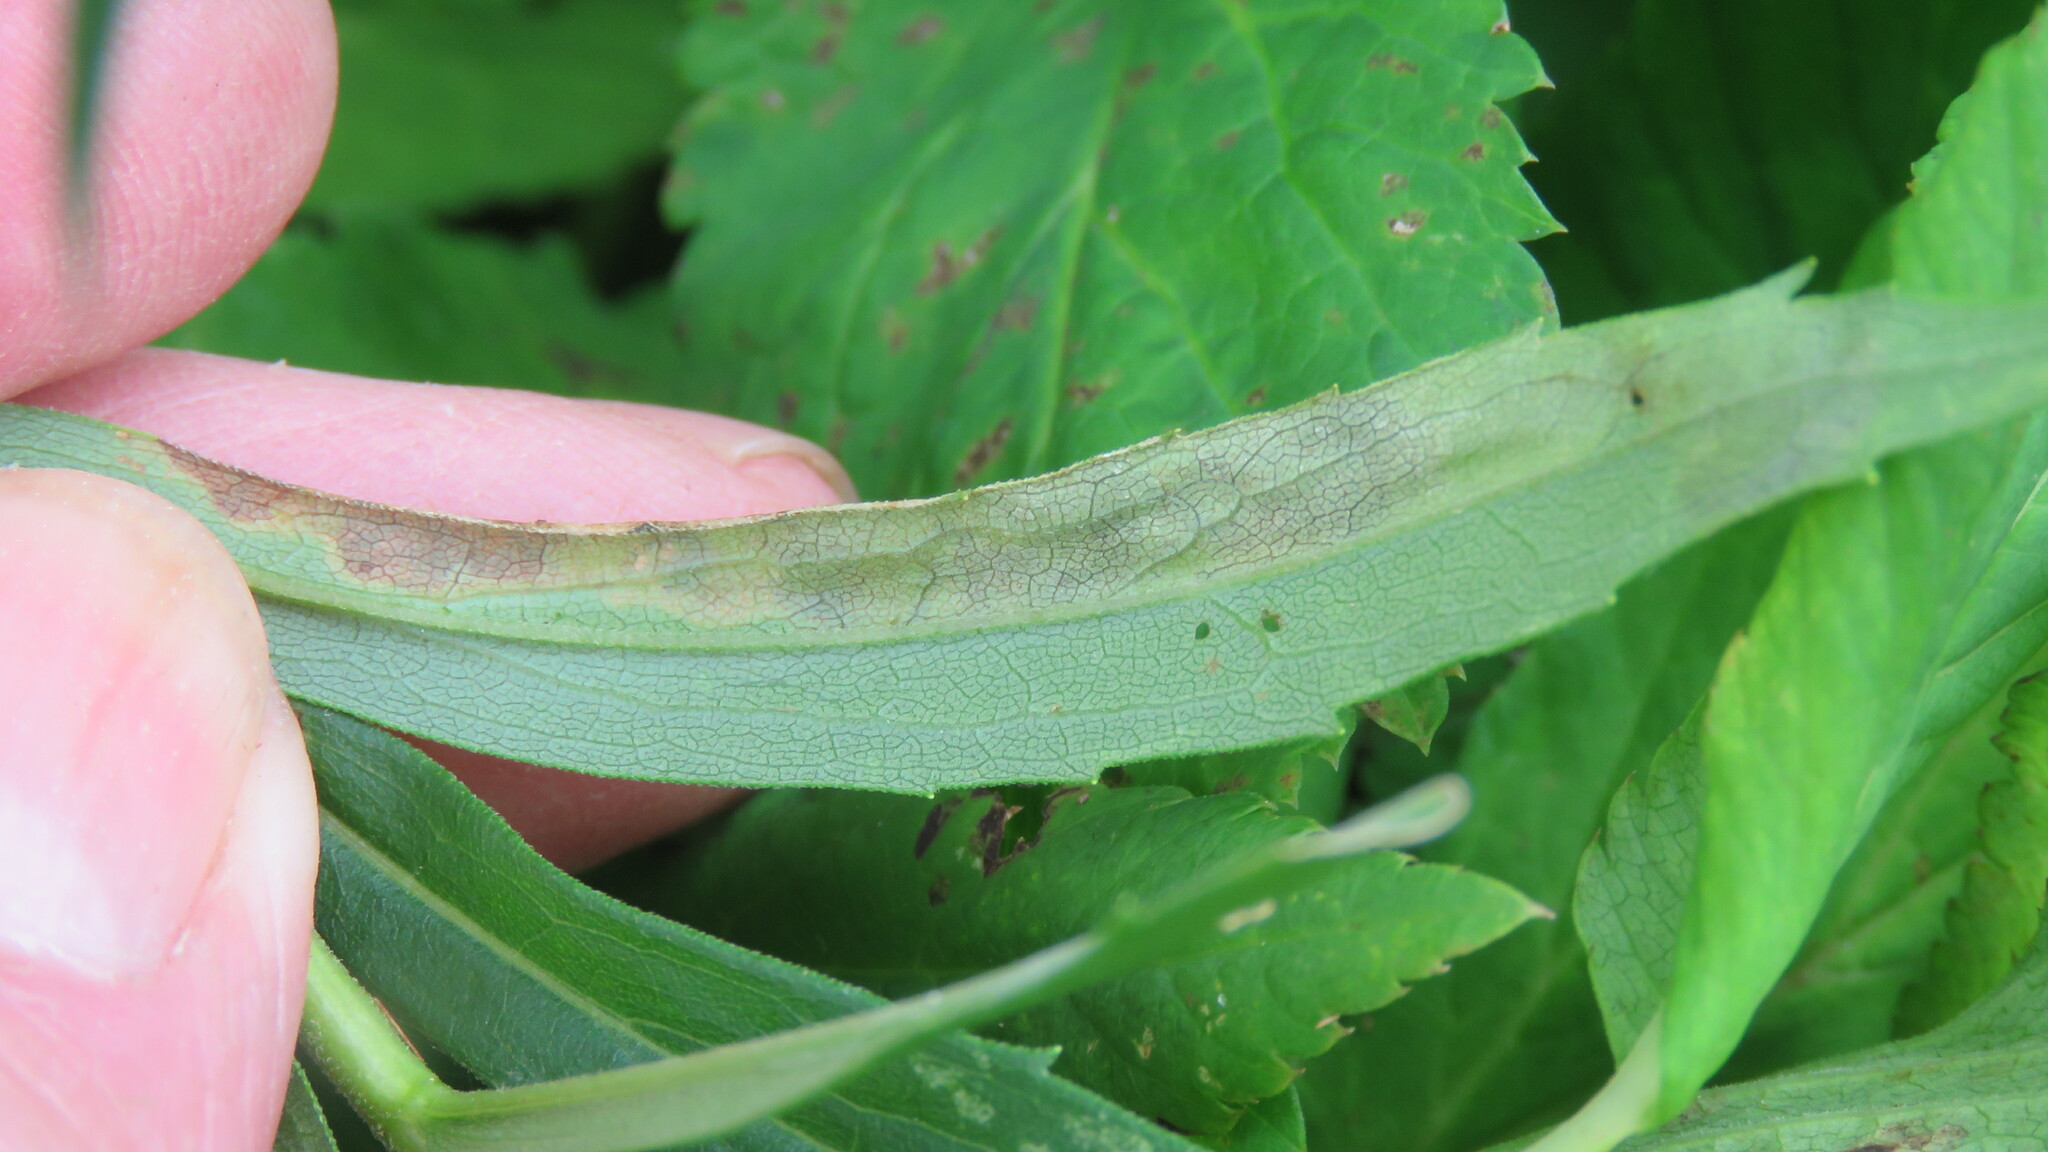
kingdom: Animalia
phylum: Arthropoda
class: Insecta
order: Diptera
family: Agromyzidae
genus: Nemorimyza
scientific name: Nemorimyza posticata
